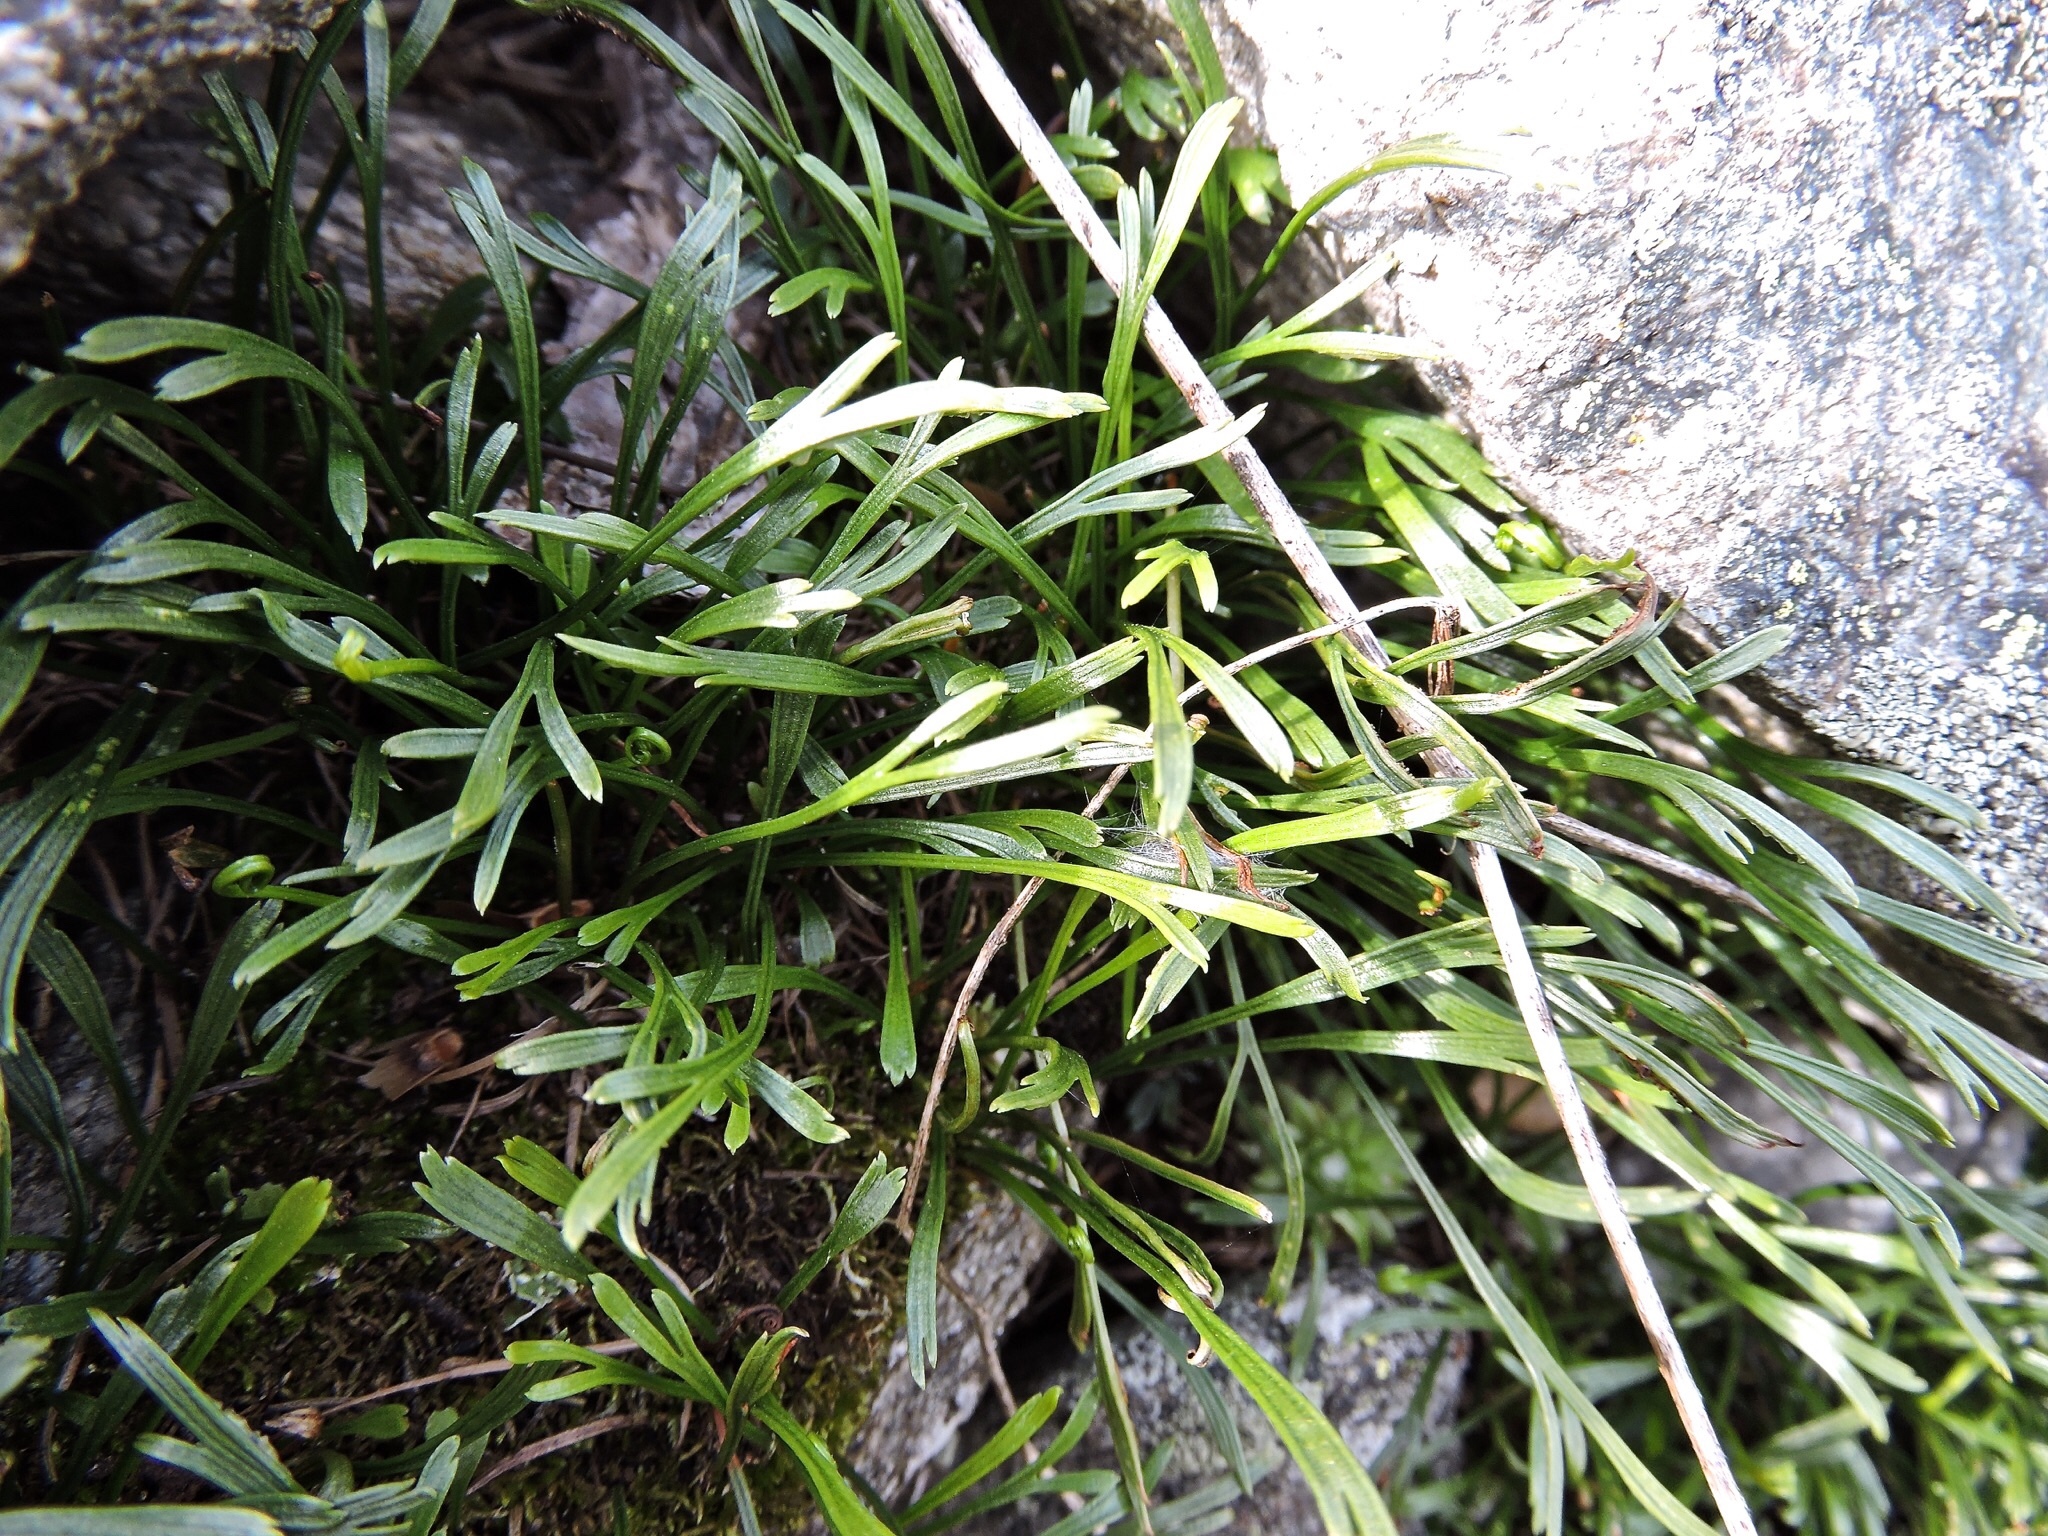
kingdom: Plantae
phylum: Tracheophyta
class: Polypodiopsida
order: Polypodiales
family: Aspleniaceae
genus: Asplenium
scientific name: Asplenium septentrionale
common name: Forked spleenwort
